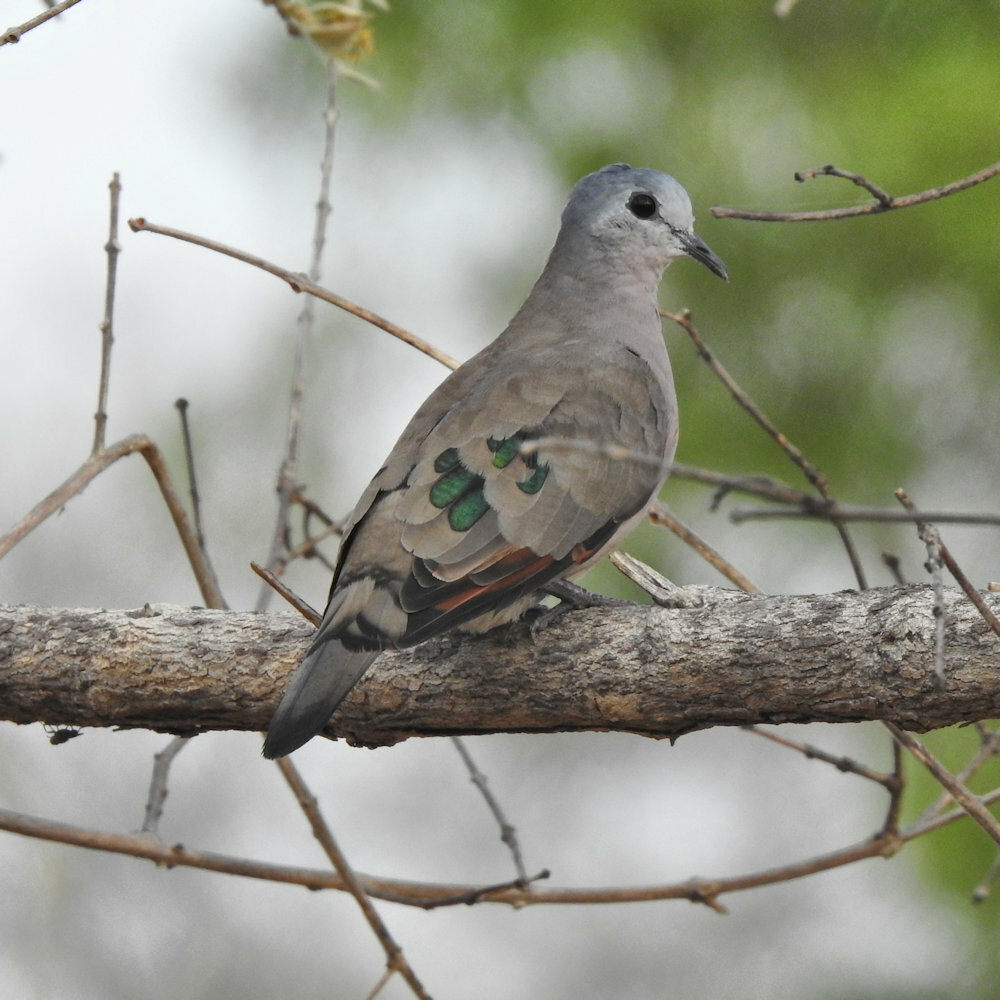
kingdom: Animalia
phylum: Chordata
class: Aves
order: Columbiformes
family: Columbidae
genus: Turtur
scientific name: Turtur chalcospilos
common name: Emerald-spotted wood dove
